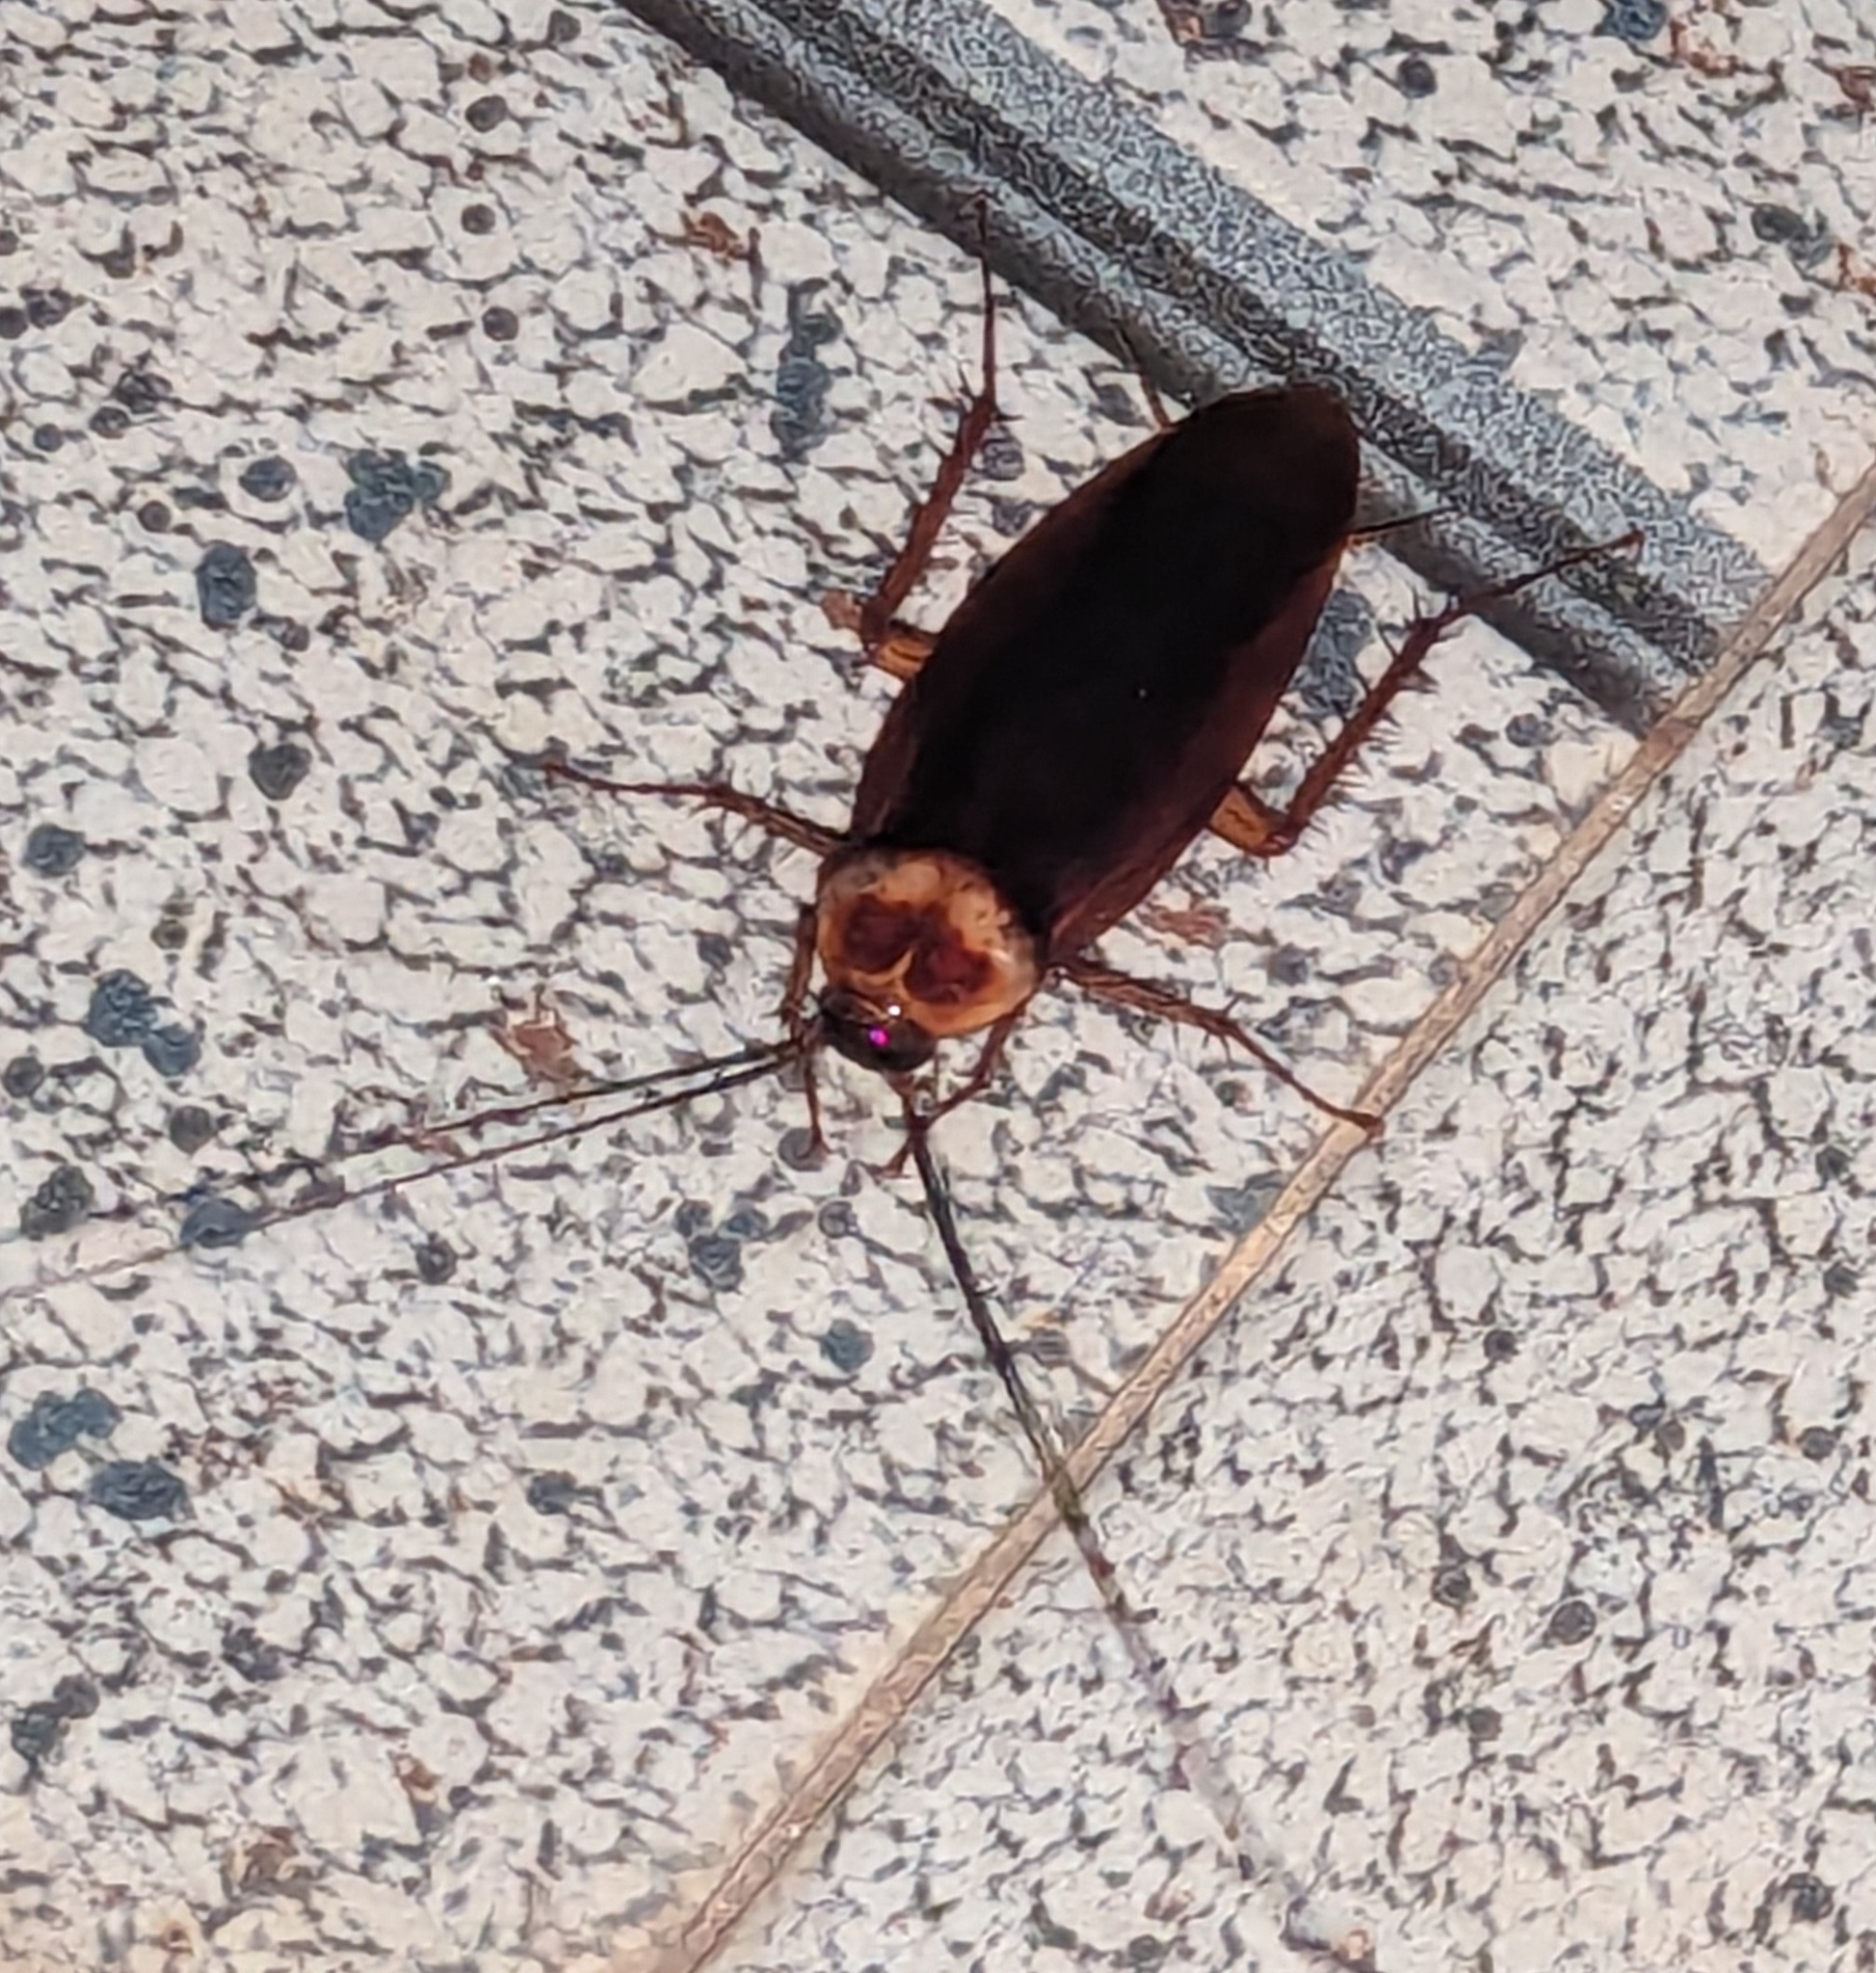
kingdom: Animalia
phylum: Arthropoda
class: Insecta
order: Blattodea
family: Blattidae
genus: Periplaneta
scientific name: Periplaneta americana
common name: American cockroach
